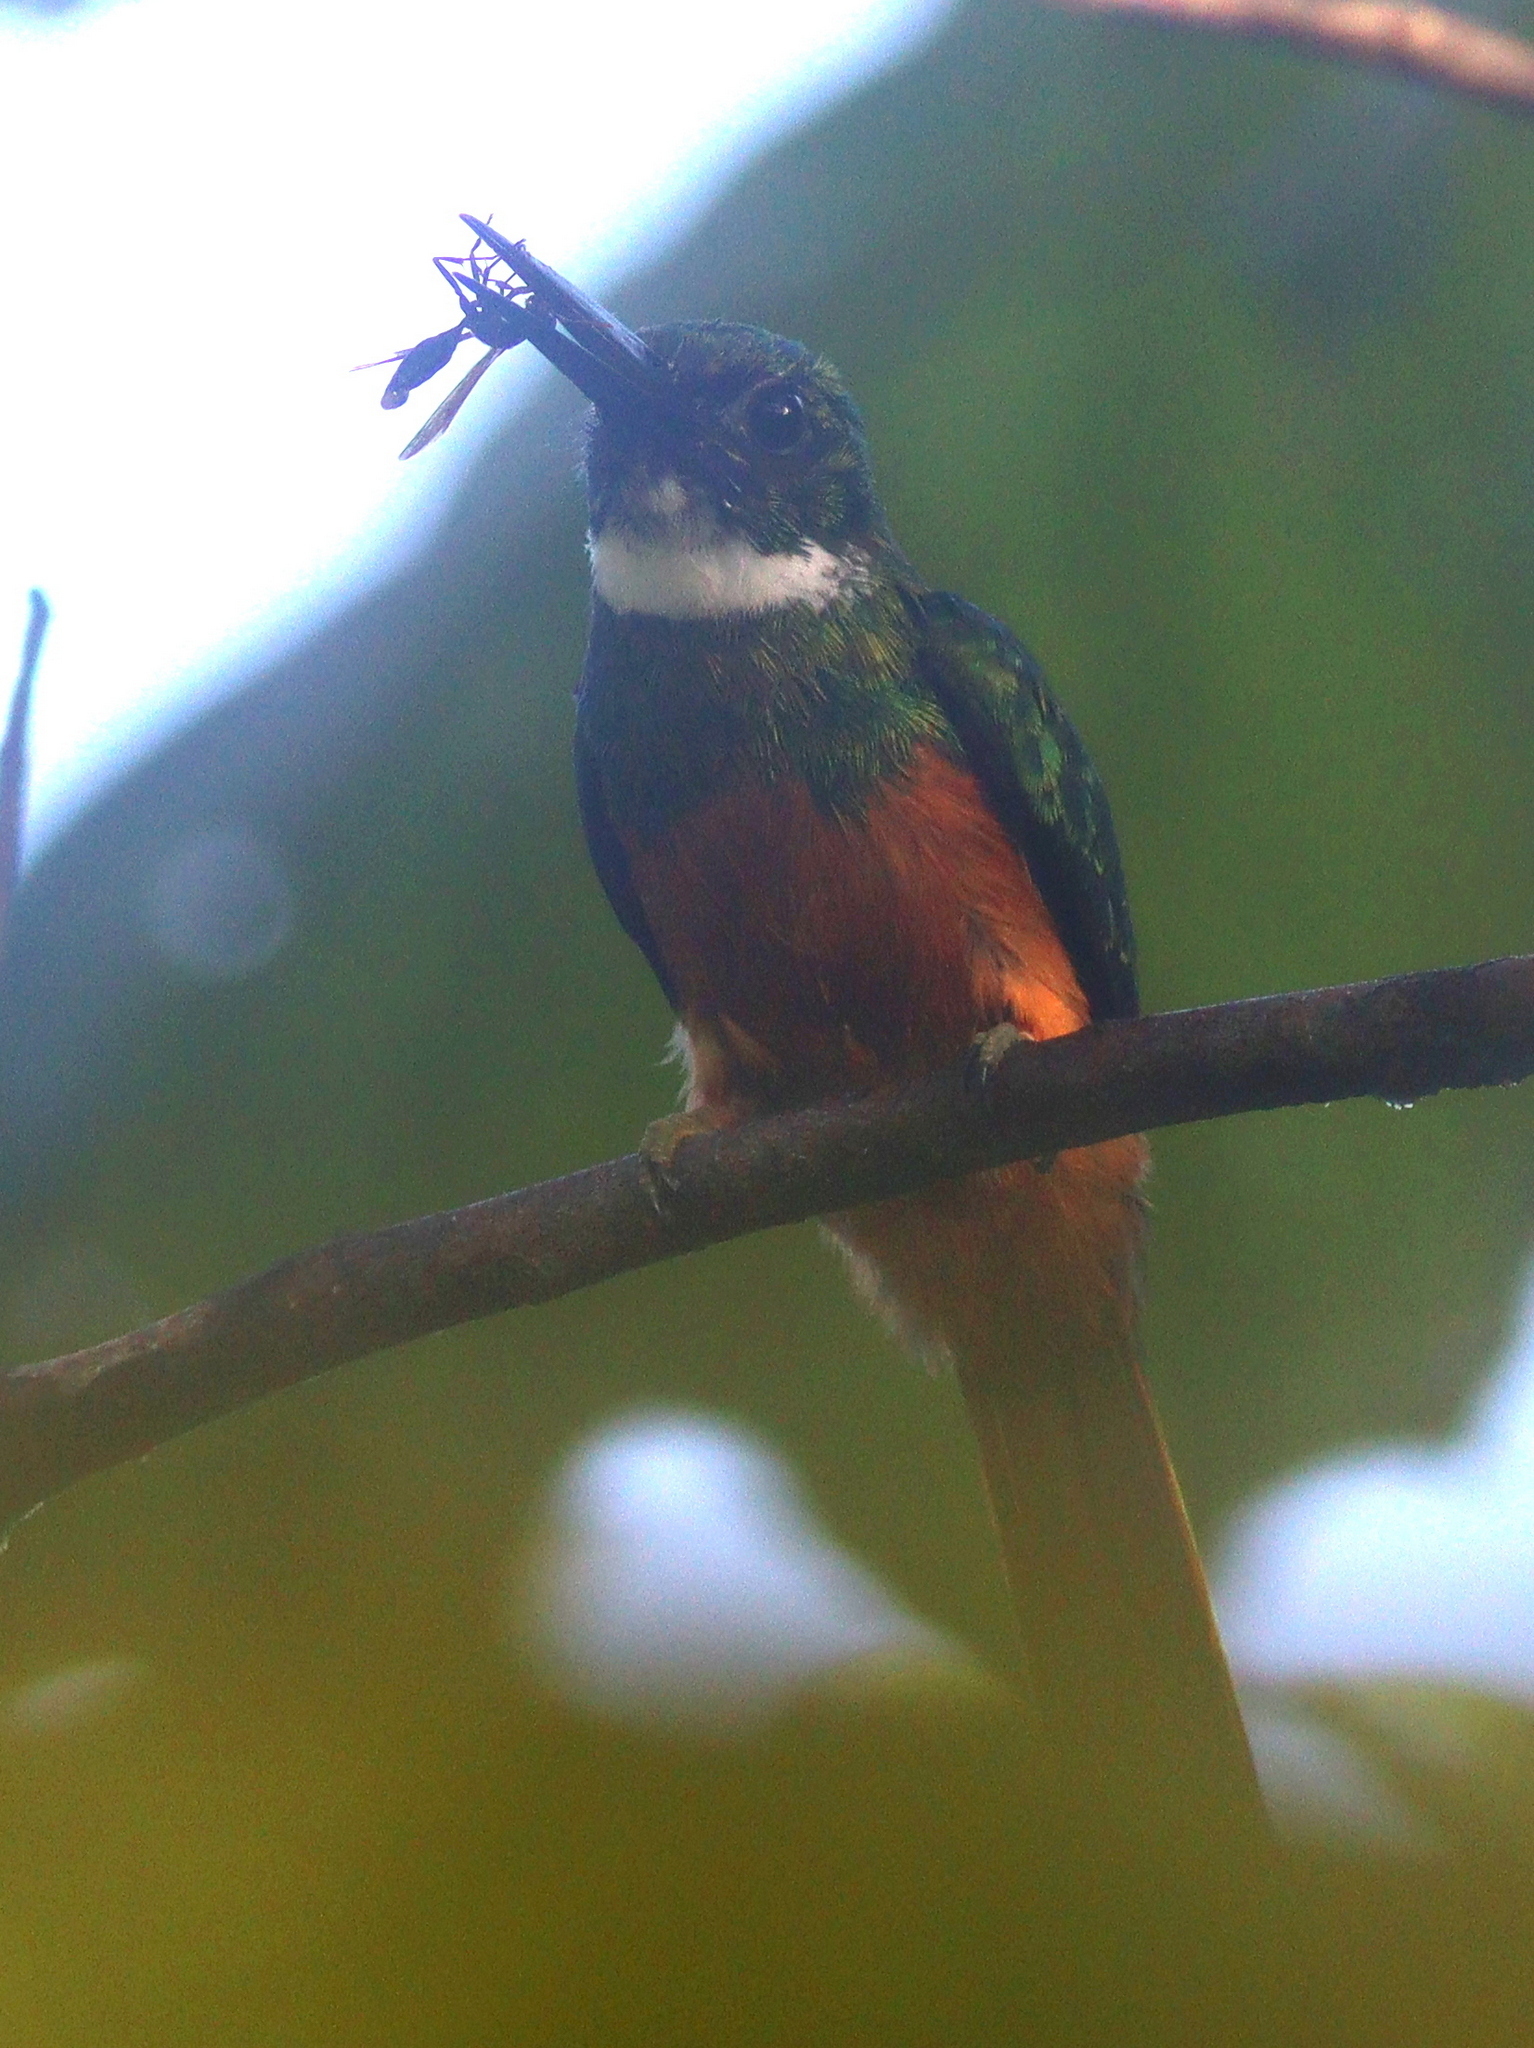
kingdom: Animalia
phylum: Chordata
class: Aves
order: Piciformes
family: Galbulidae
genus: Galbula
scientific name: Galbula ruficauda
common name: Rufous-tailed jacamar
